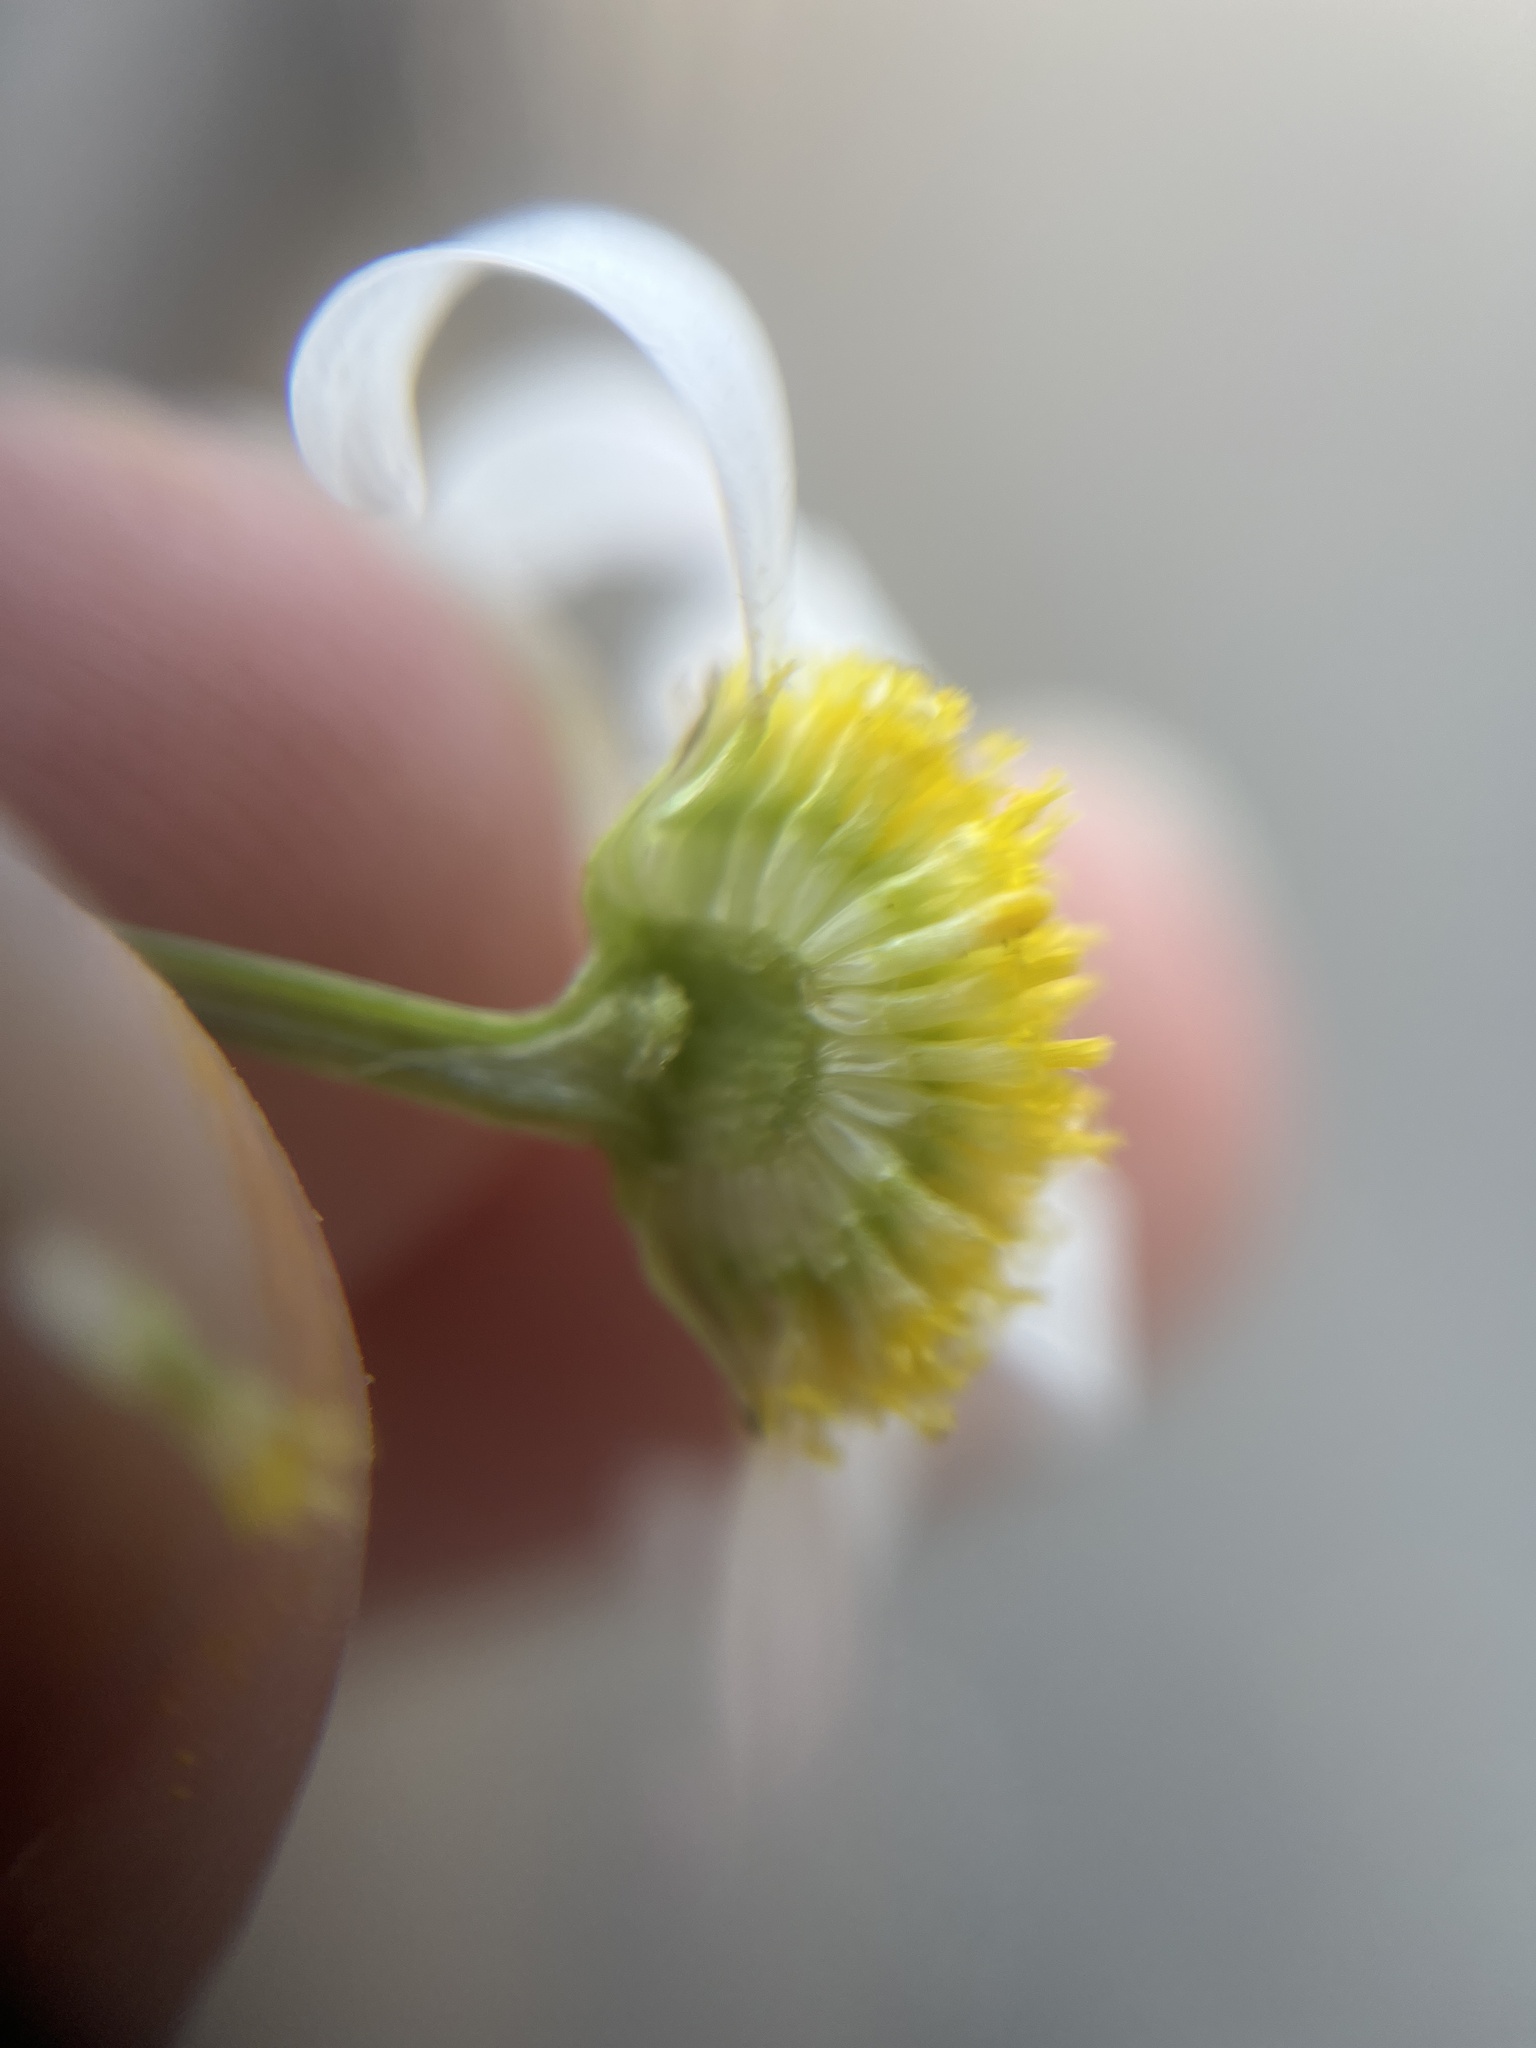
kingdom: Plantae
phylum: Tracheophyta
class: Magnoliopsida
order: Asterales
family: Asteraceae
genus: Tripleurospermum
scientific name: Tripleurospermum inodorum
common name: Scentless mayweed
